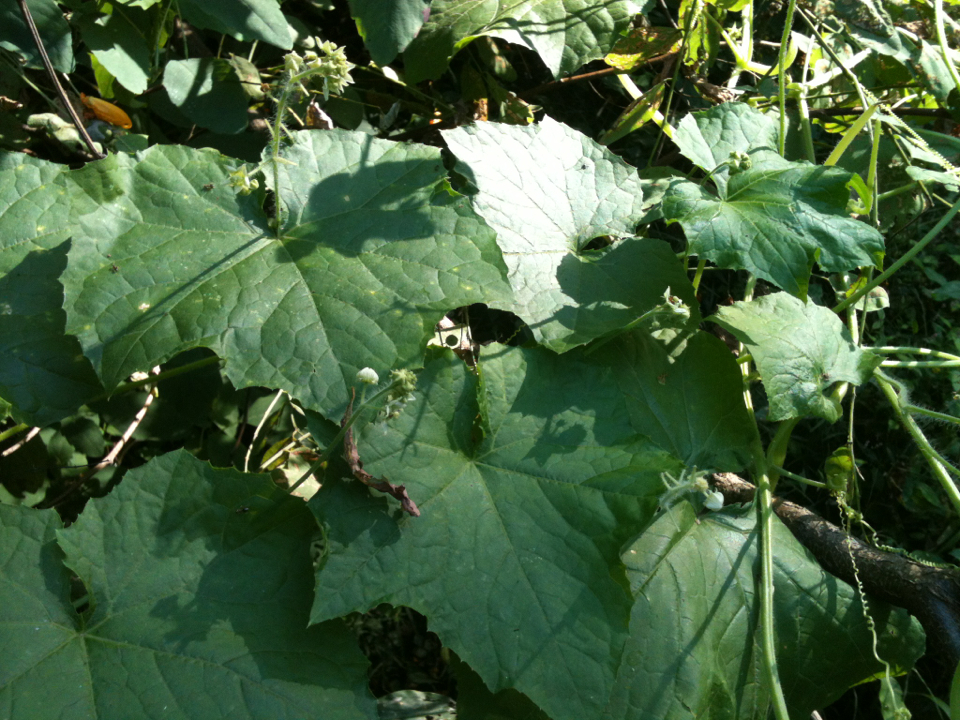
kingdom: Plantae
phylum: Tracheophyta
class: Magnoliopsida
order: Cucurbitales
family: Cucurbitaceae
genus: Sicyos
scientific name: Sicyos angulatus
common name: Angled burr cucumber
